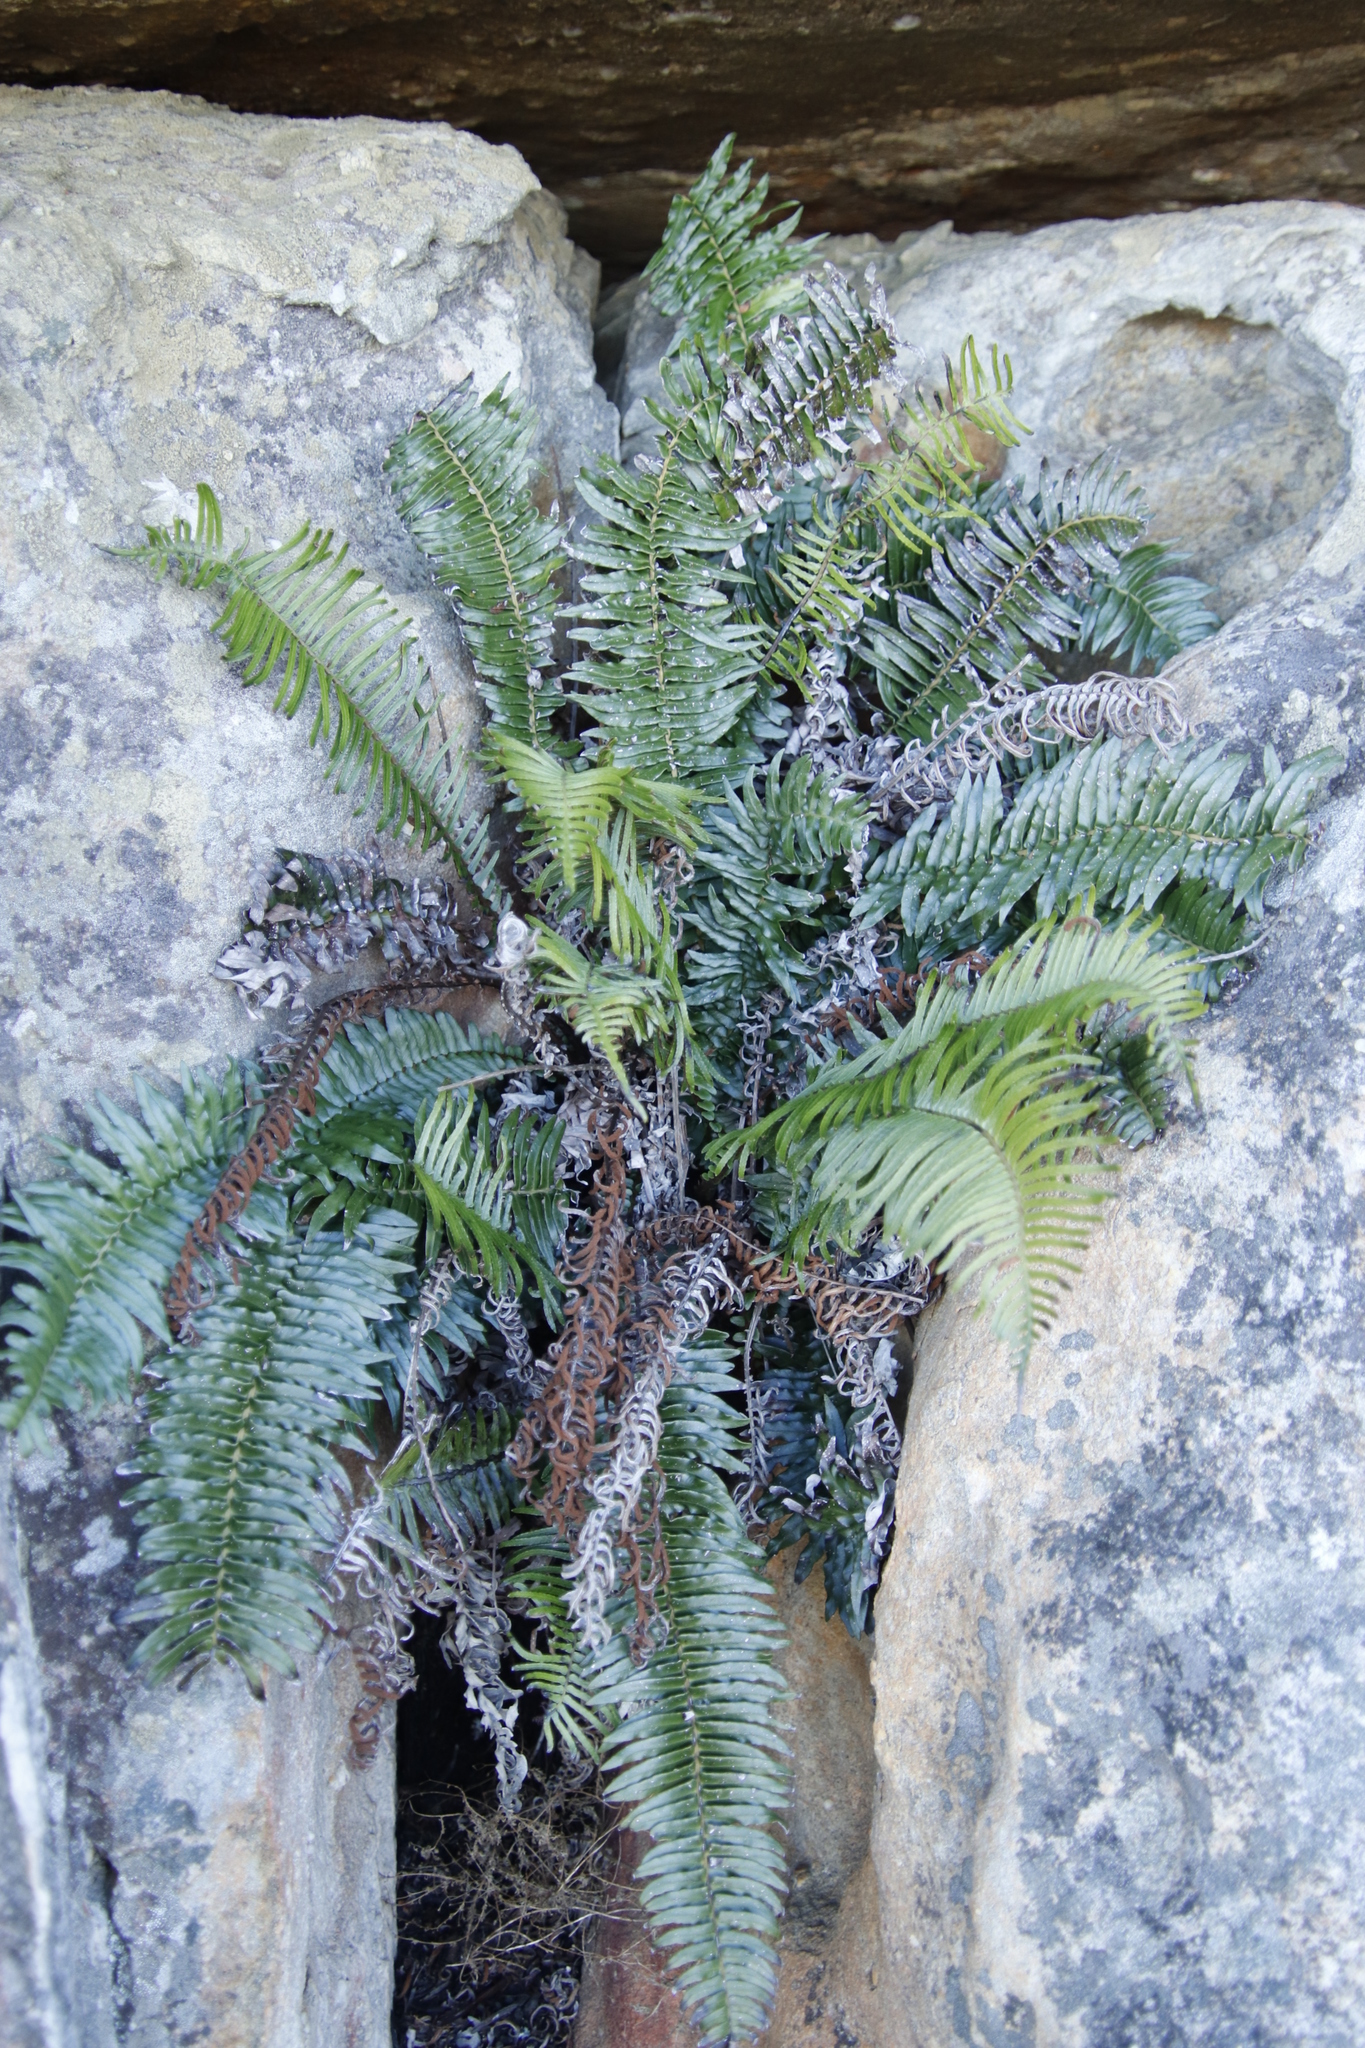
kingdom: Plantae
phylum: Tracheophyta
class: Polypodiopsida
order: Polypodiales
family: Blechnaceae
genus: Blechnum
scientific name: Blechnum punctulatum
